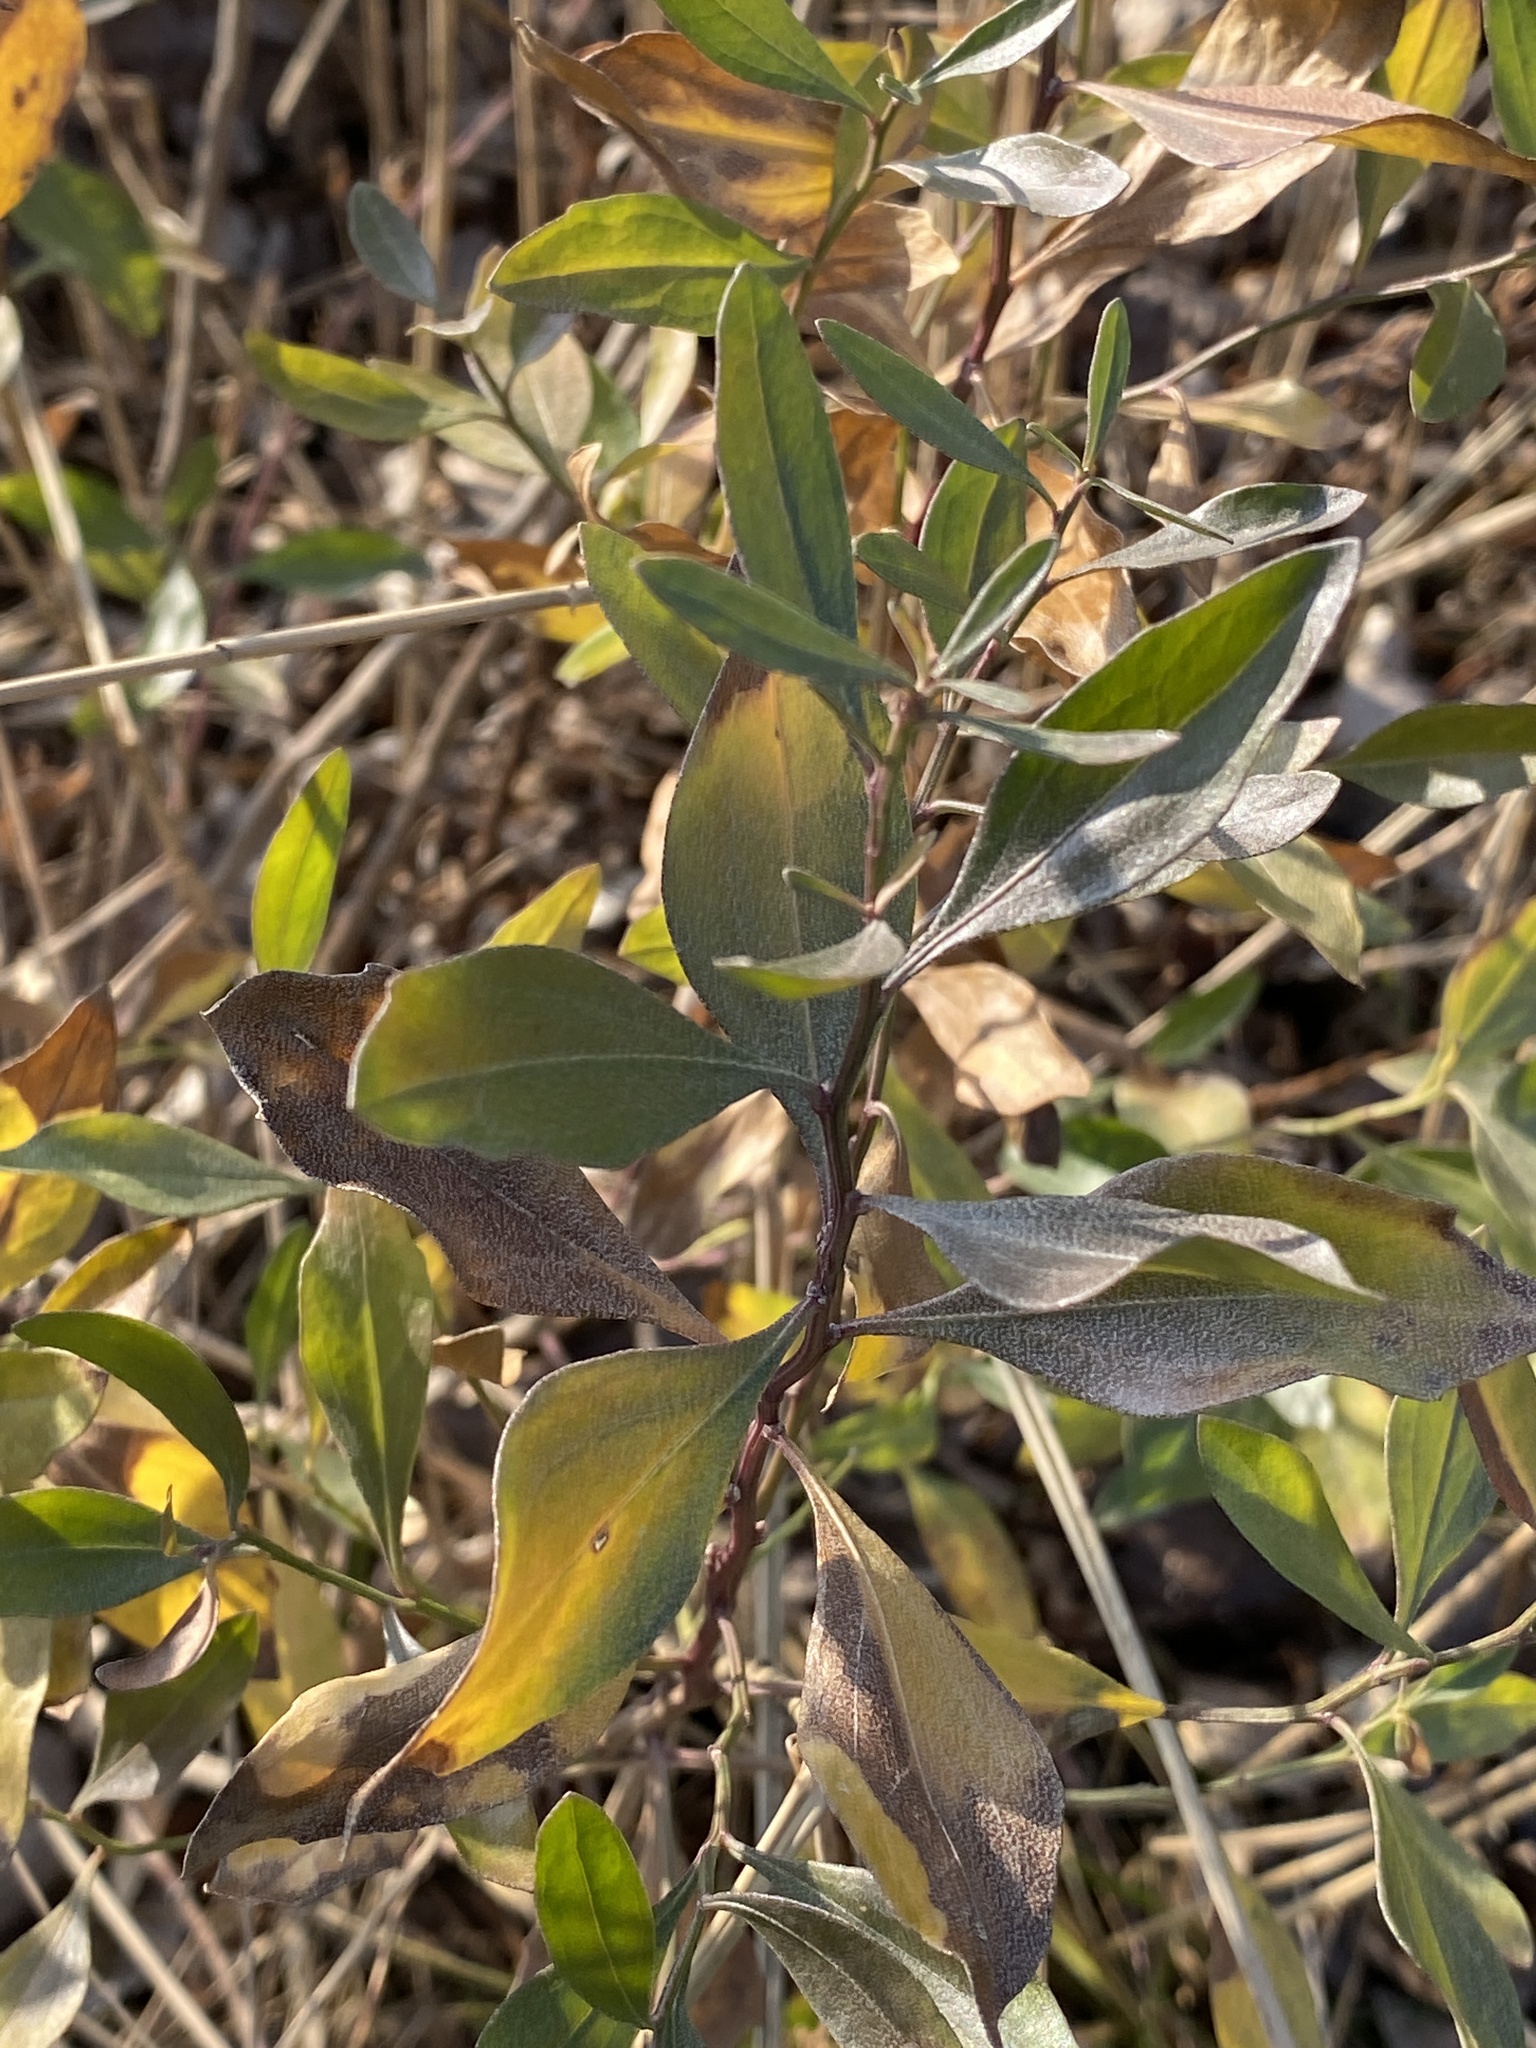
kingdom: Plantae
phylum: Tracheophyta
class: Magnoliopsida
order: Asterales
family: Asteraceae
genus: Baccharis
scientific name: Baccharis halimifolia
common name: Eastern baccharis
